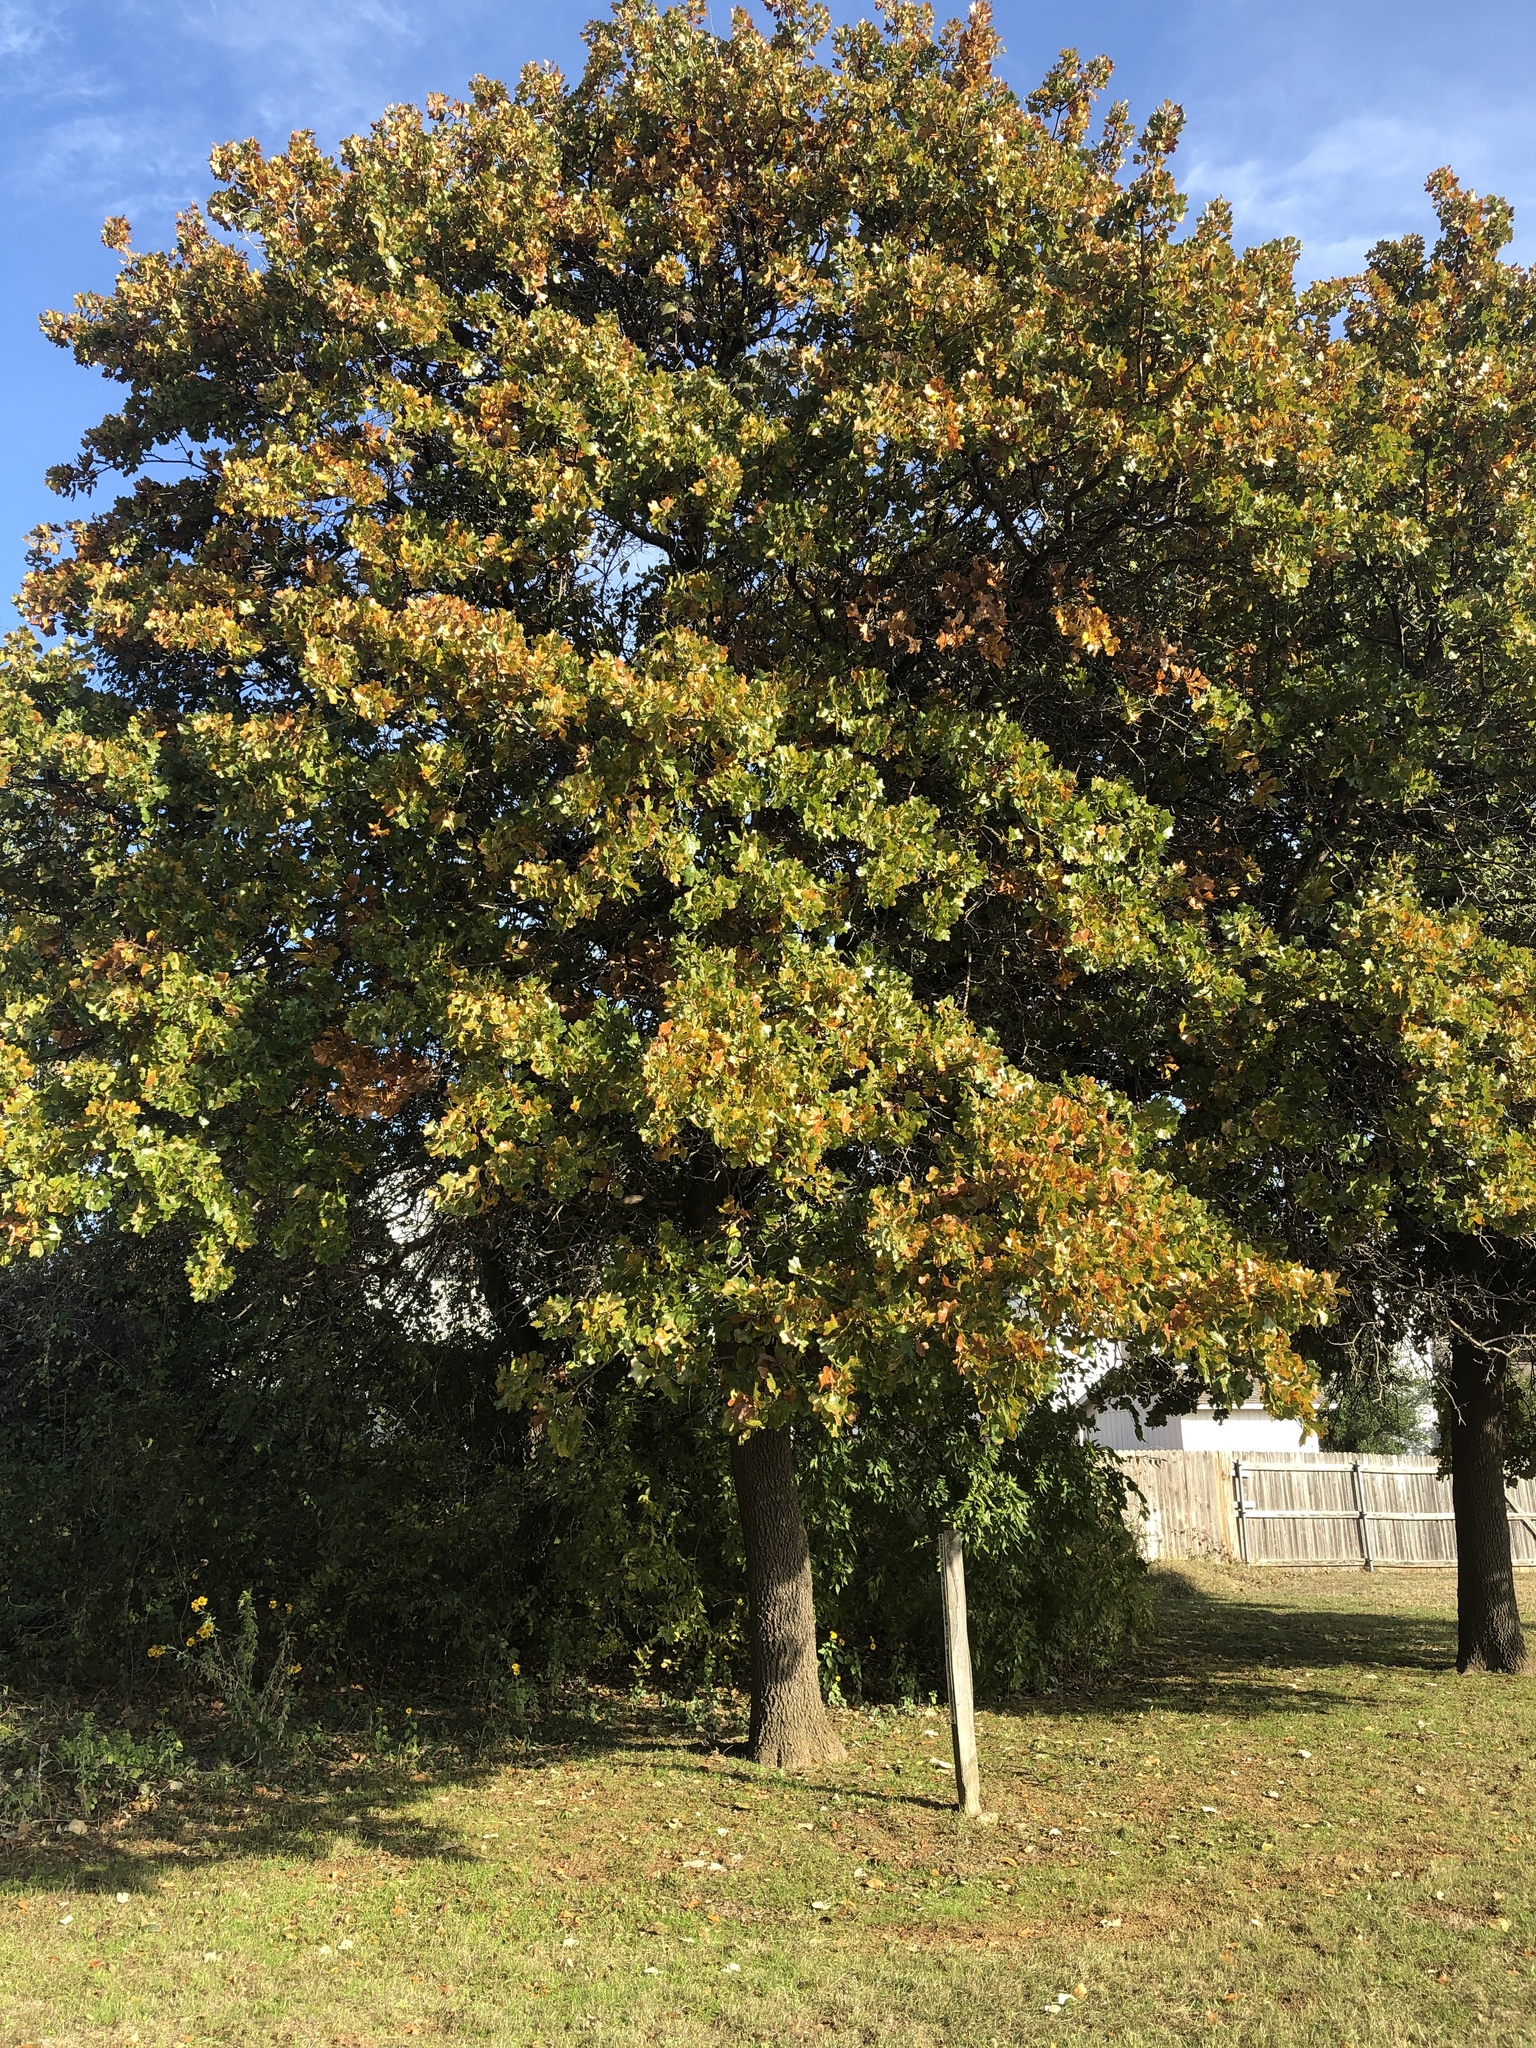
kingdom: Plantae
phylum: Tracheophyta
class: Magnoliopsida
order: Fagales
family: Fagaceae
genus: Quercus
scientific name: Quercus marilandica
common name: Blackjack oak
